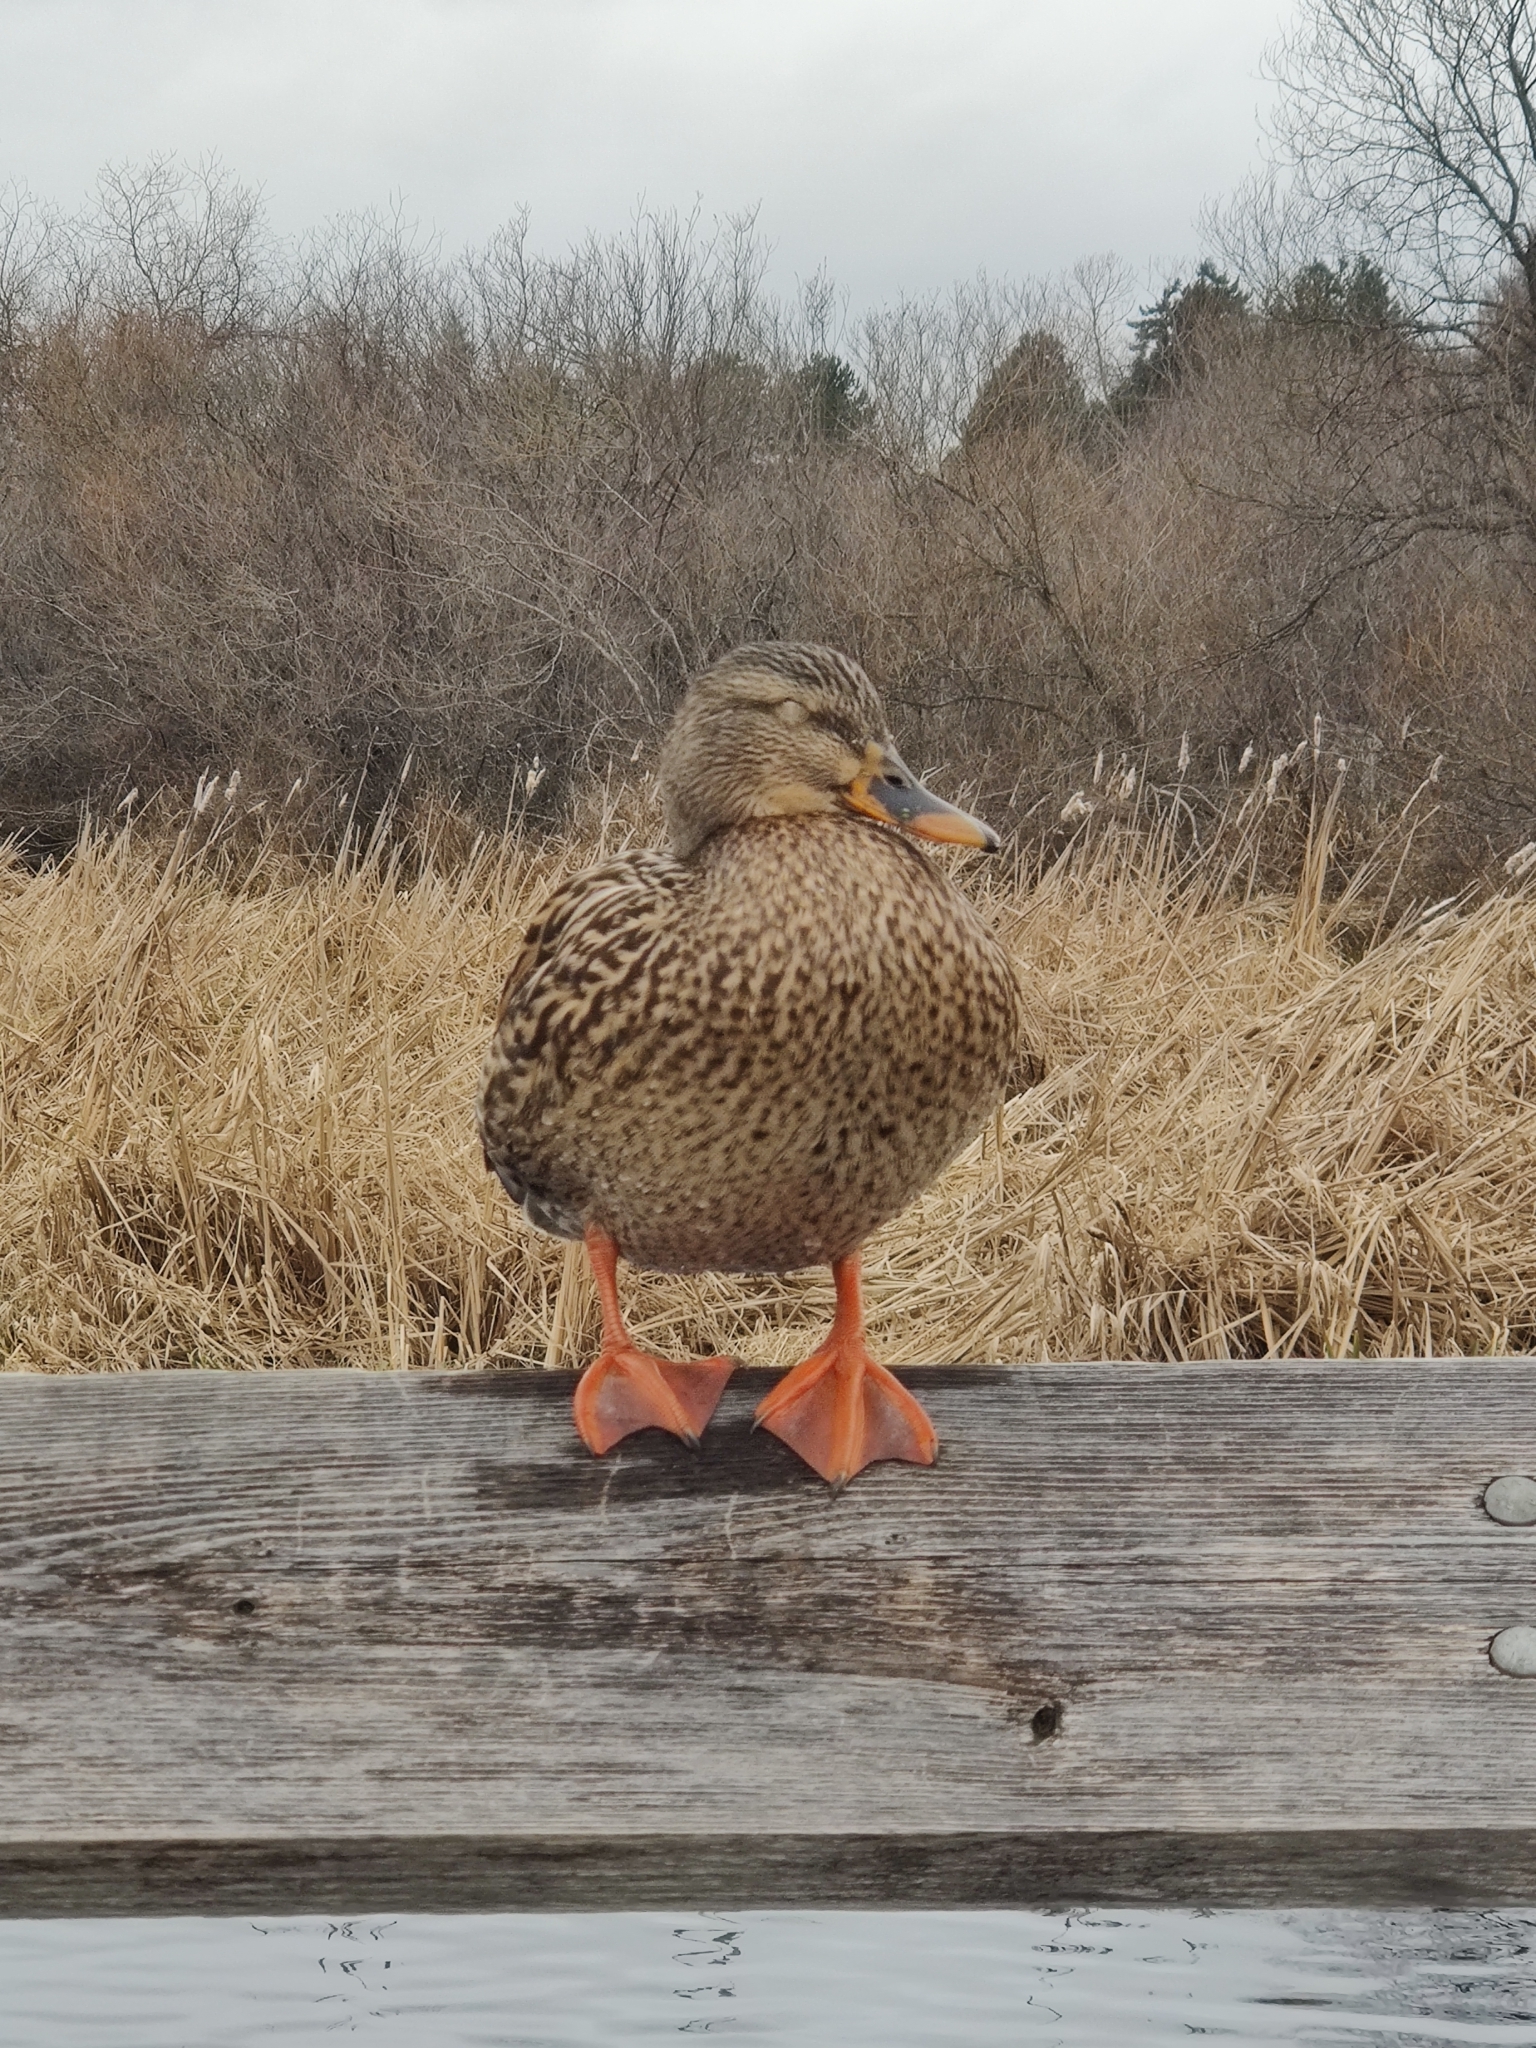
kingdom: Animalia
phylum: Chordata
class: Aves
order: Anseriformes
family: Anatidae
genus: Anas
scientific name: Anas platyrhynchos
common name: Mallard
